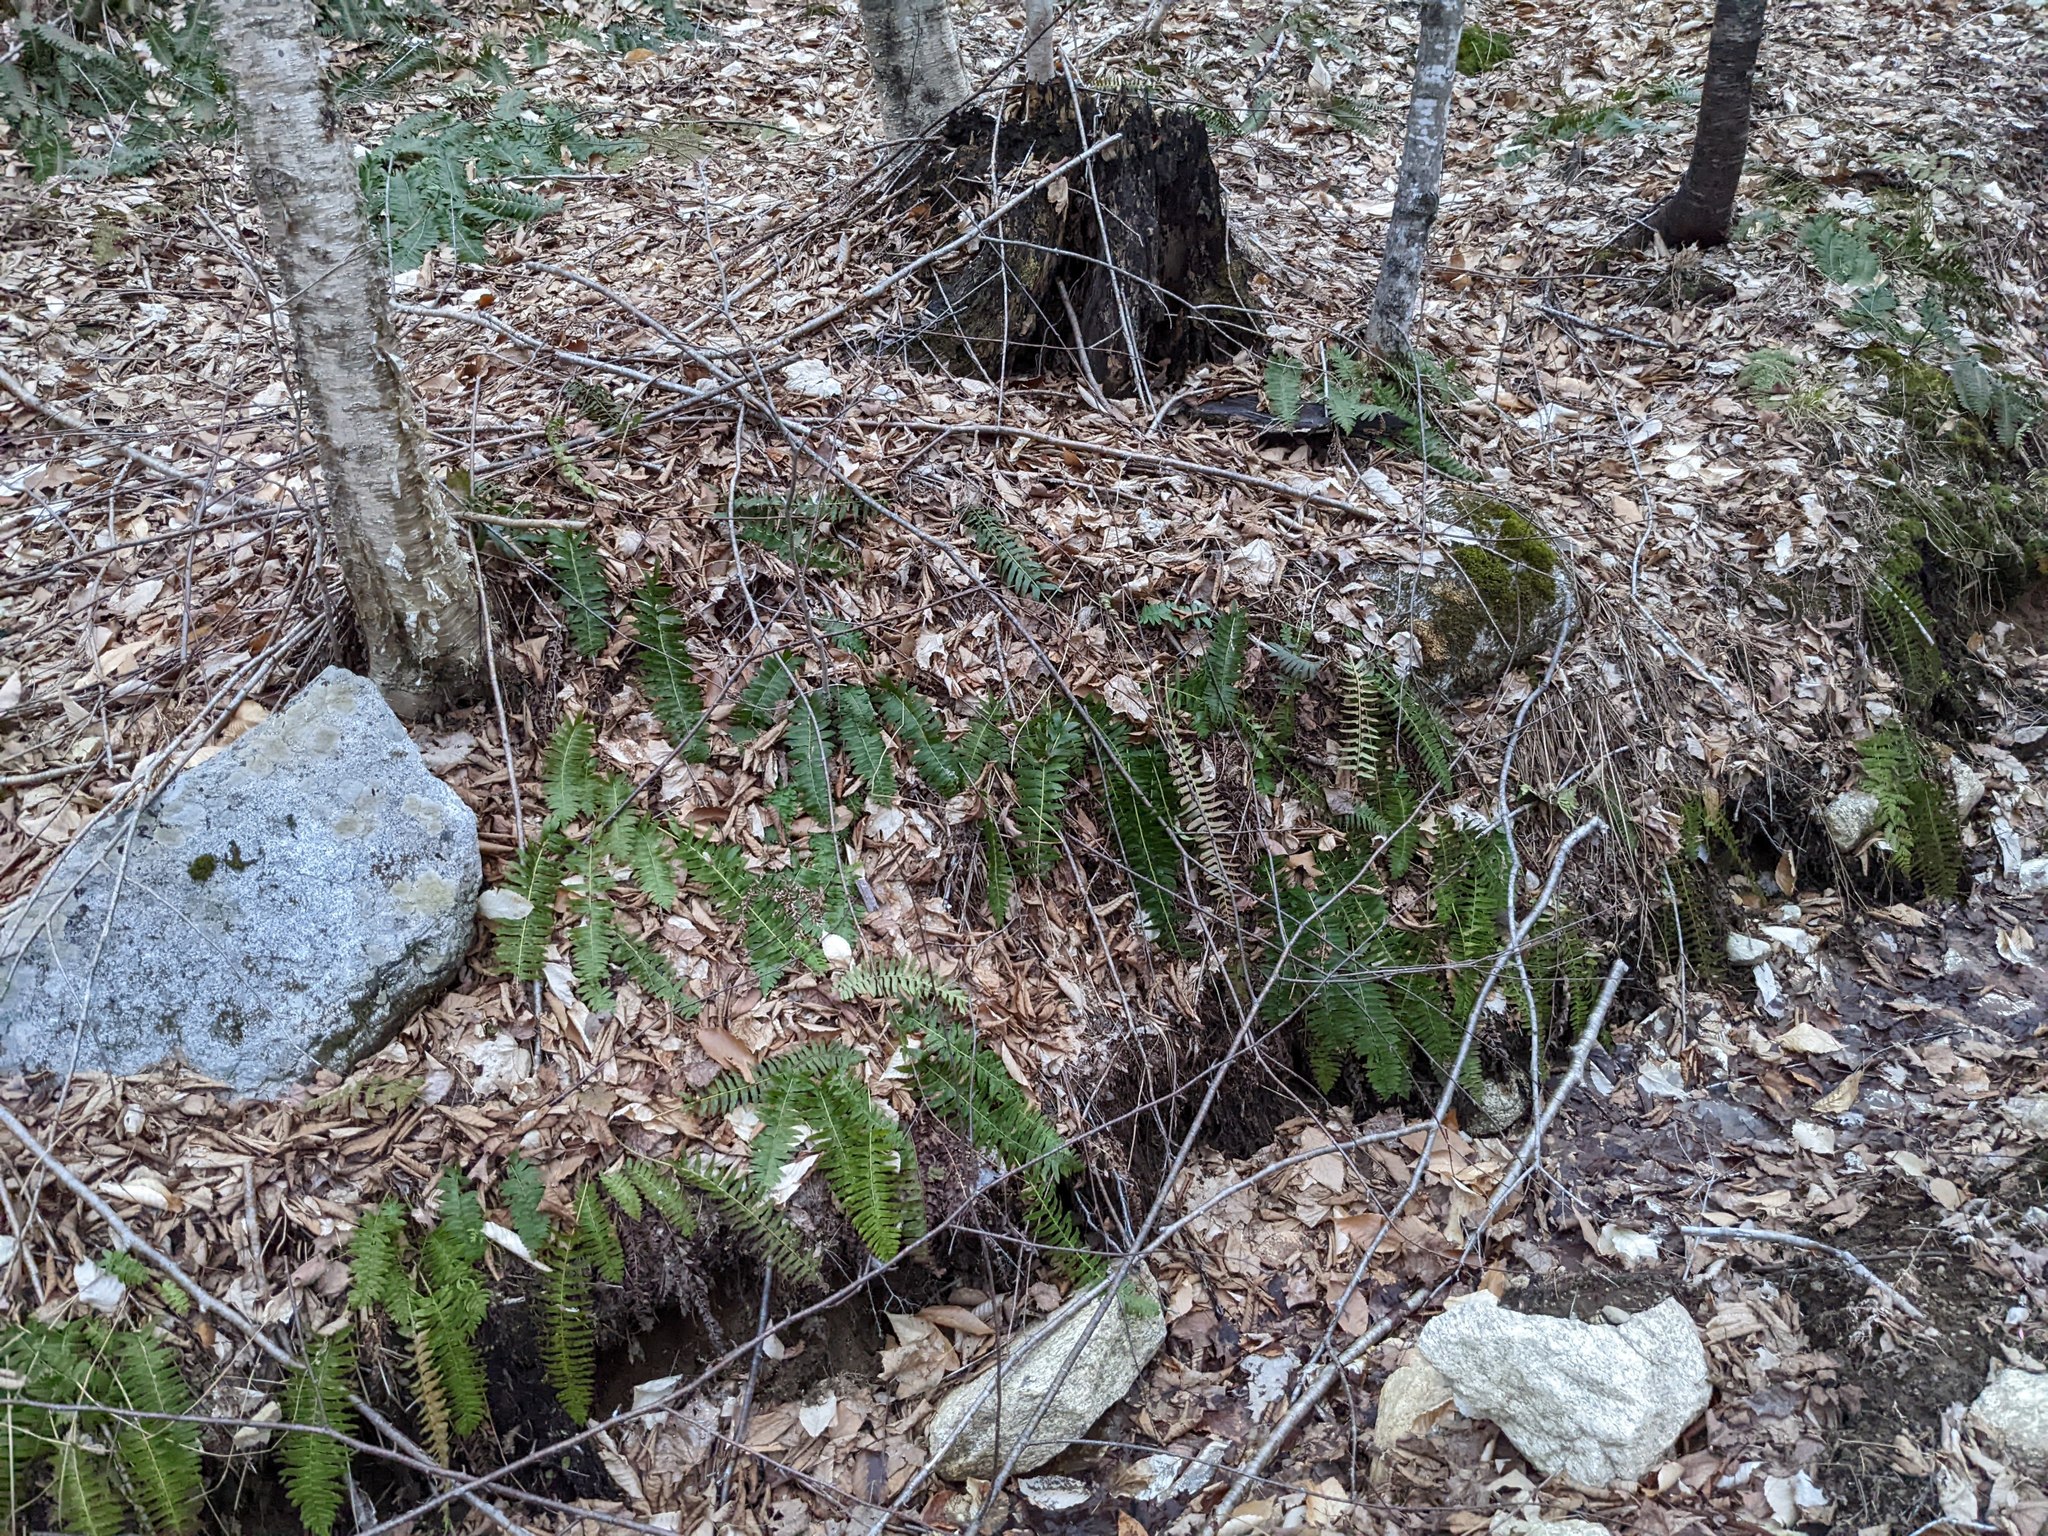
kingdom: Plantae
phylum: Tracheophyta
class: Polypodiopsida
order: Polypodiales
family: Dryopteridaceae
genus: Polystichum
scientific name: Polystichum acrostichoides
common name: Christmas fern
